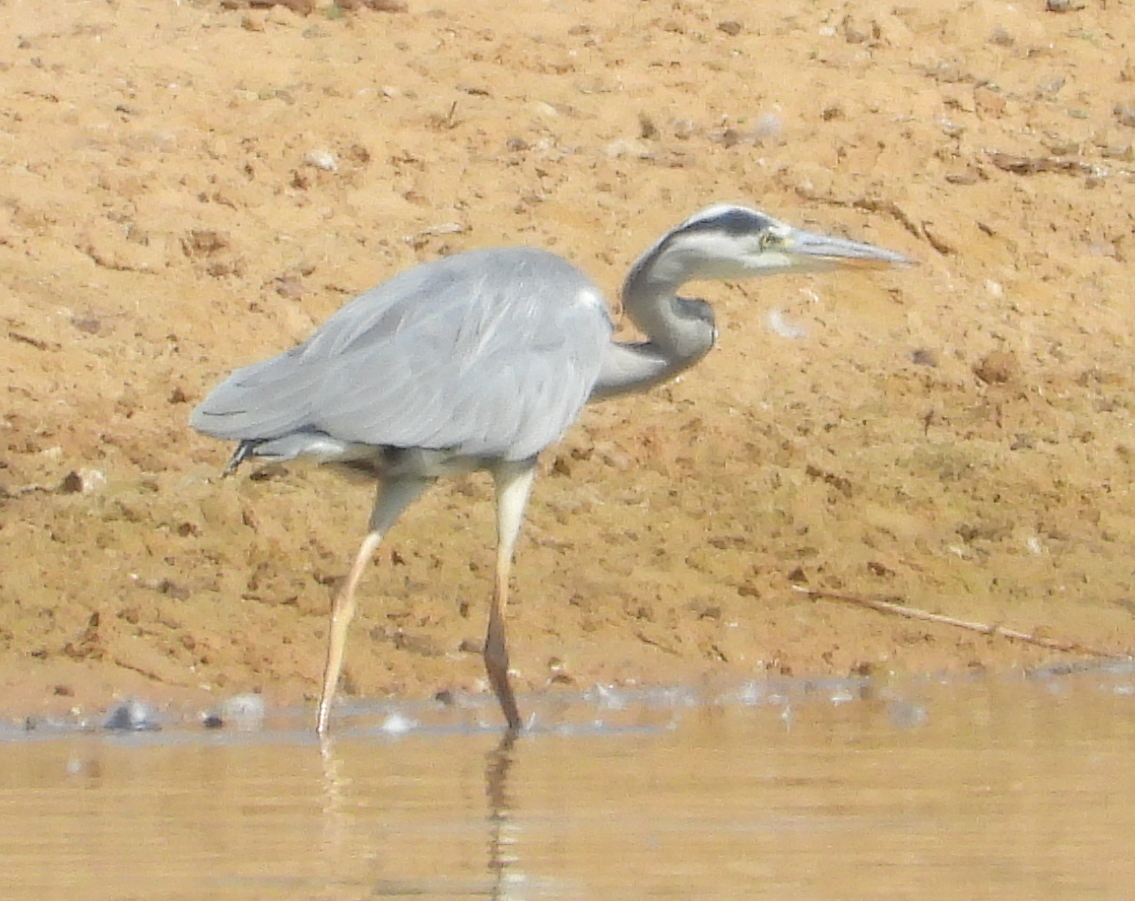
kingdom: Animalia
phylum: Chordata
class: Aves
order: Pelecaniformes
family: Ardeidae
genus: Ardea
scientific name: Ardea cinerea
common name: Grey heron
